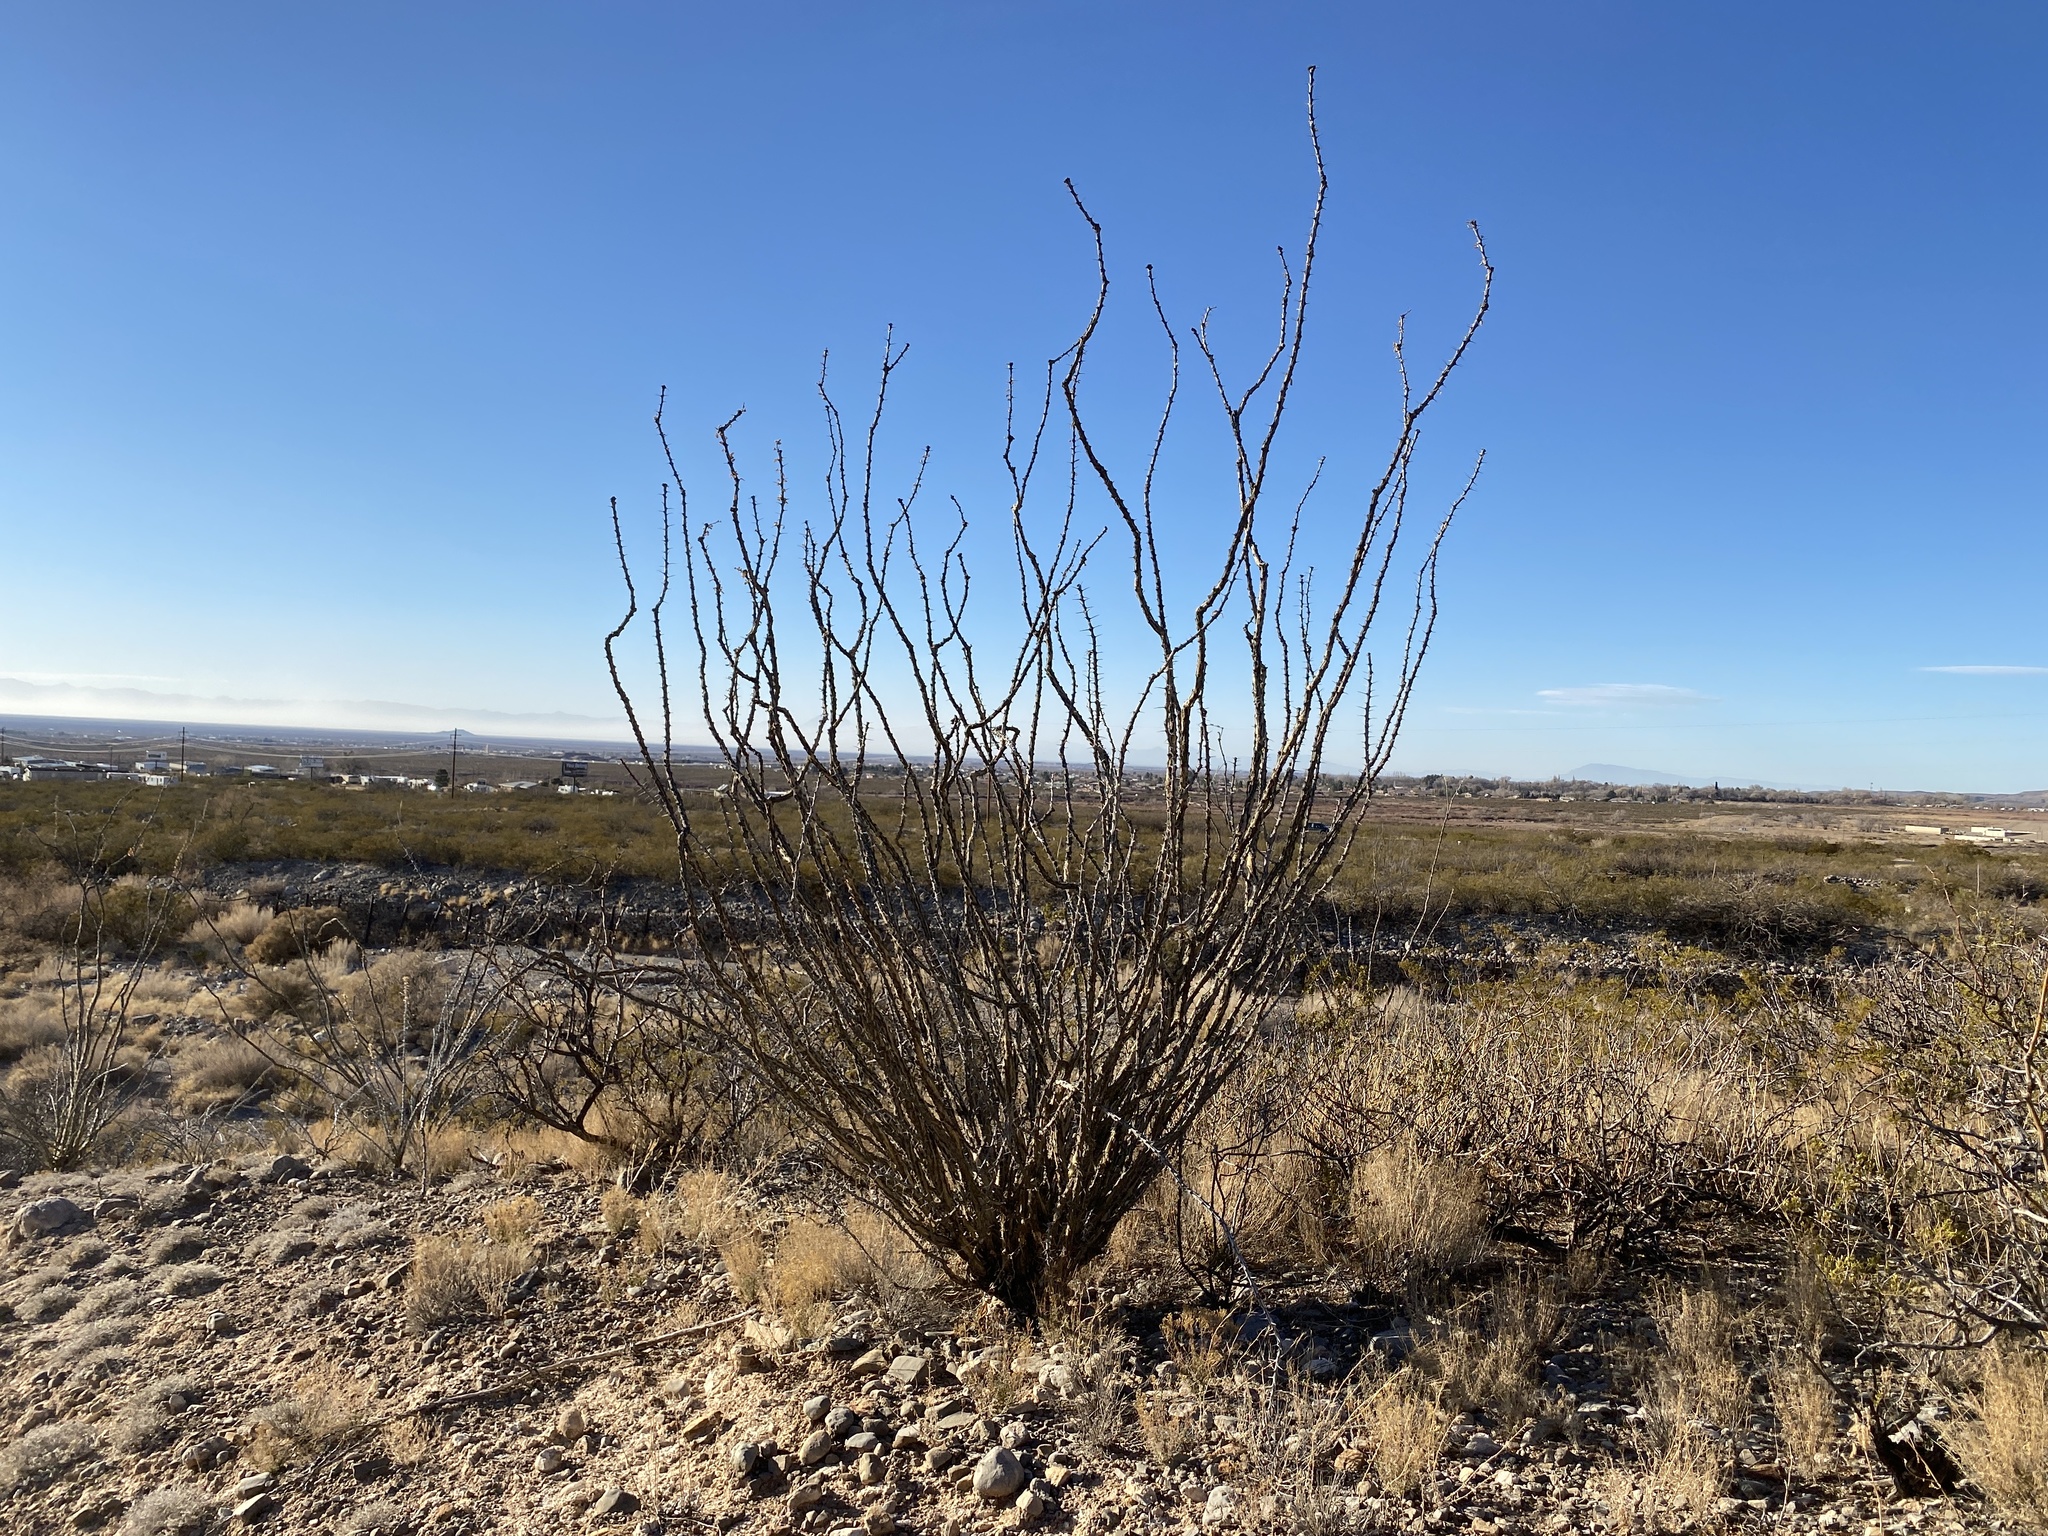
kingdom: Plantae
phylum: Tracheophyta
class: Magnoliopsida
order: Ericales
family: Fouquieriaceae
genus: Fouquieria
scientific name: Fouquieria splendens
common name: Vine-cactus
